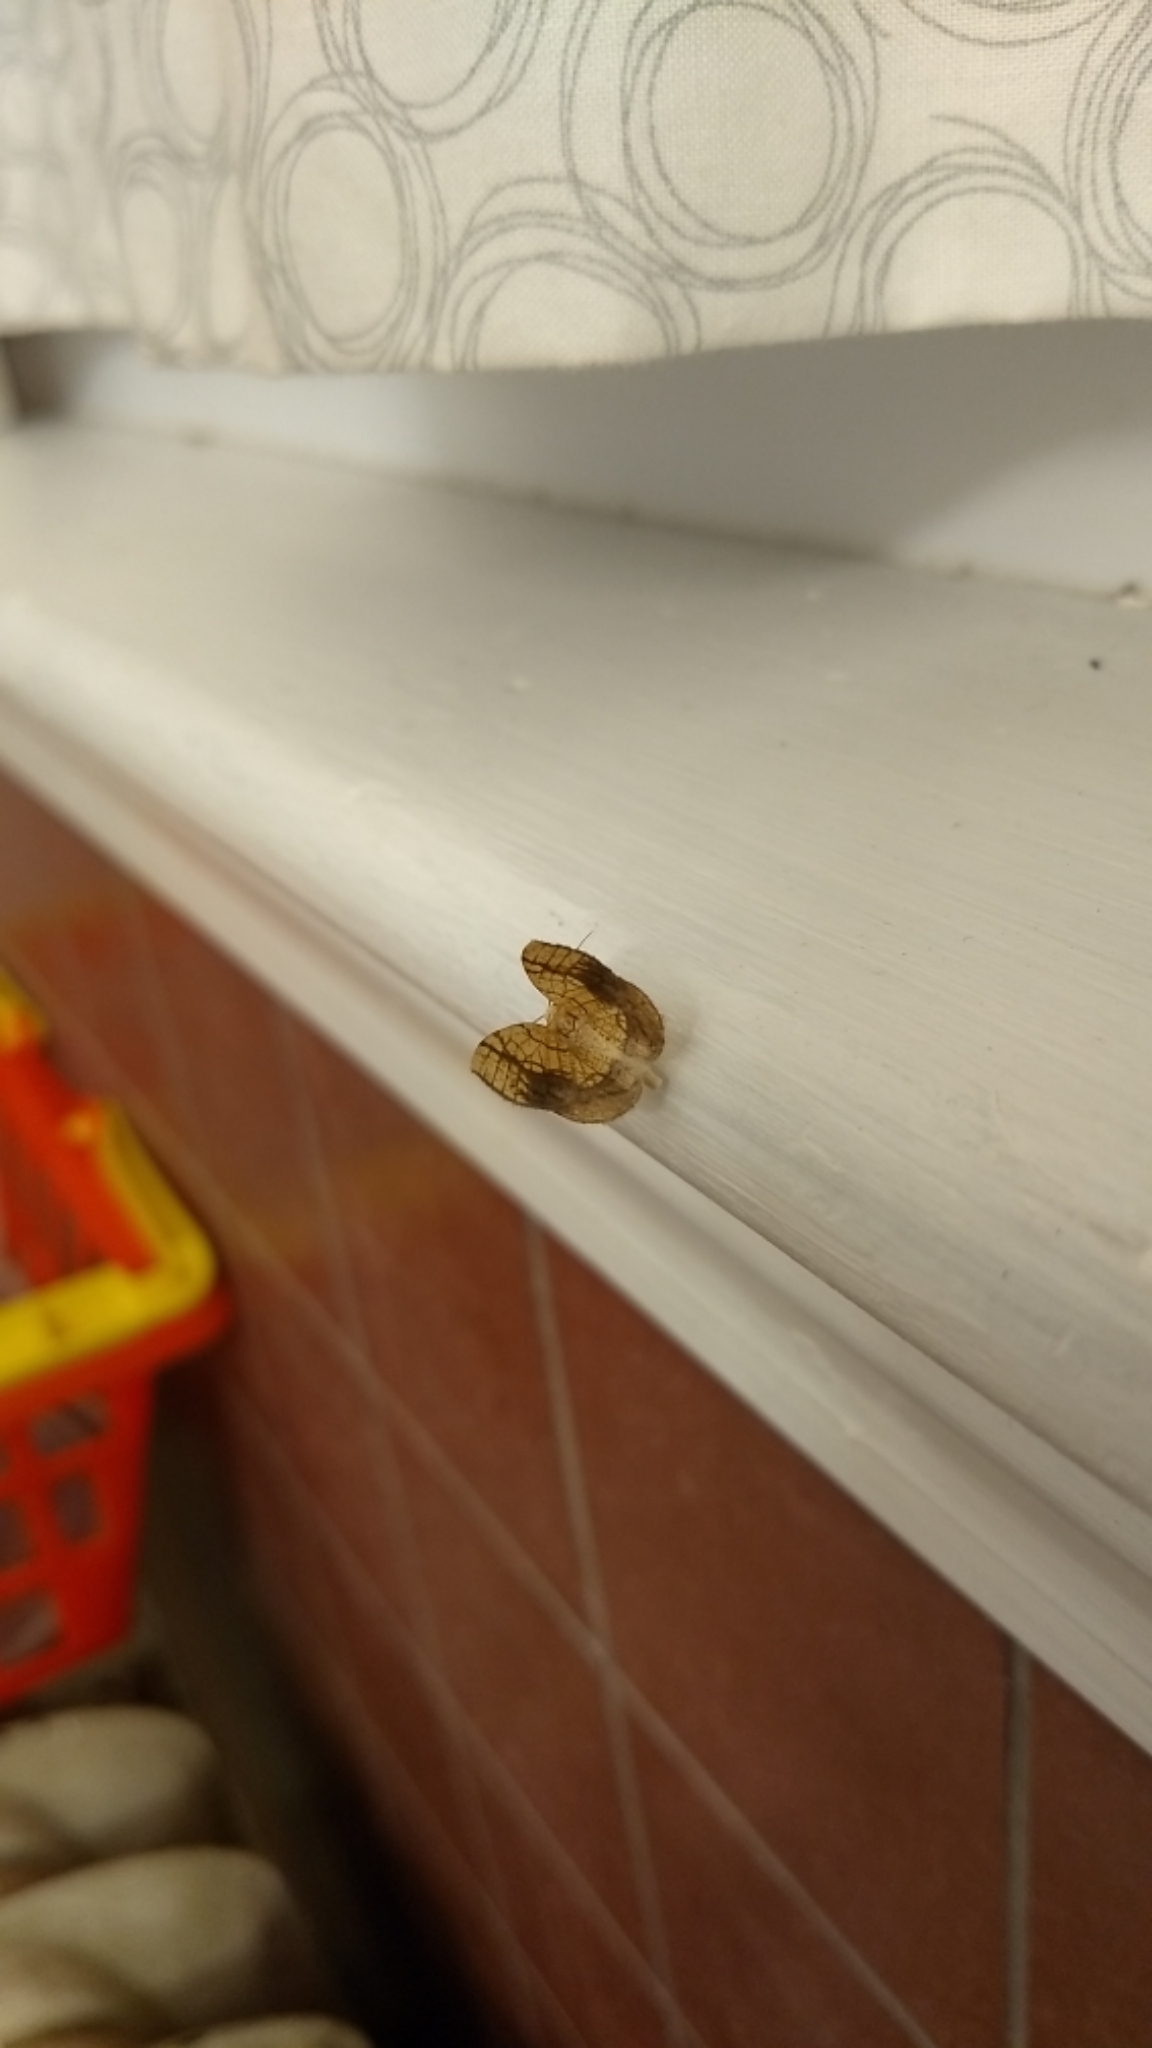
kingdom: Animalia
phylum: Arthropoda
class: Insecta
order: Lepidoptera
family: Geometridae
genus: Nematocampa
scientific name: Nematocampa resistaria
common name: Horned spanworm moth
